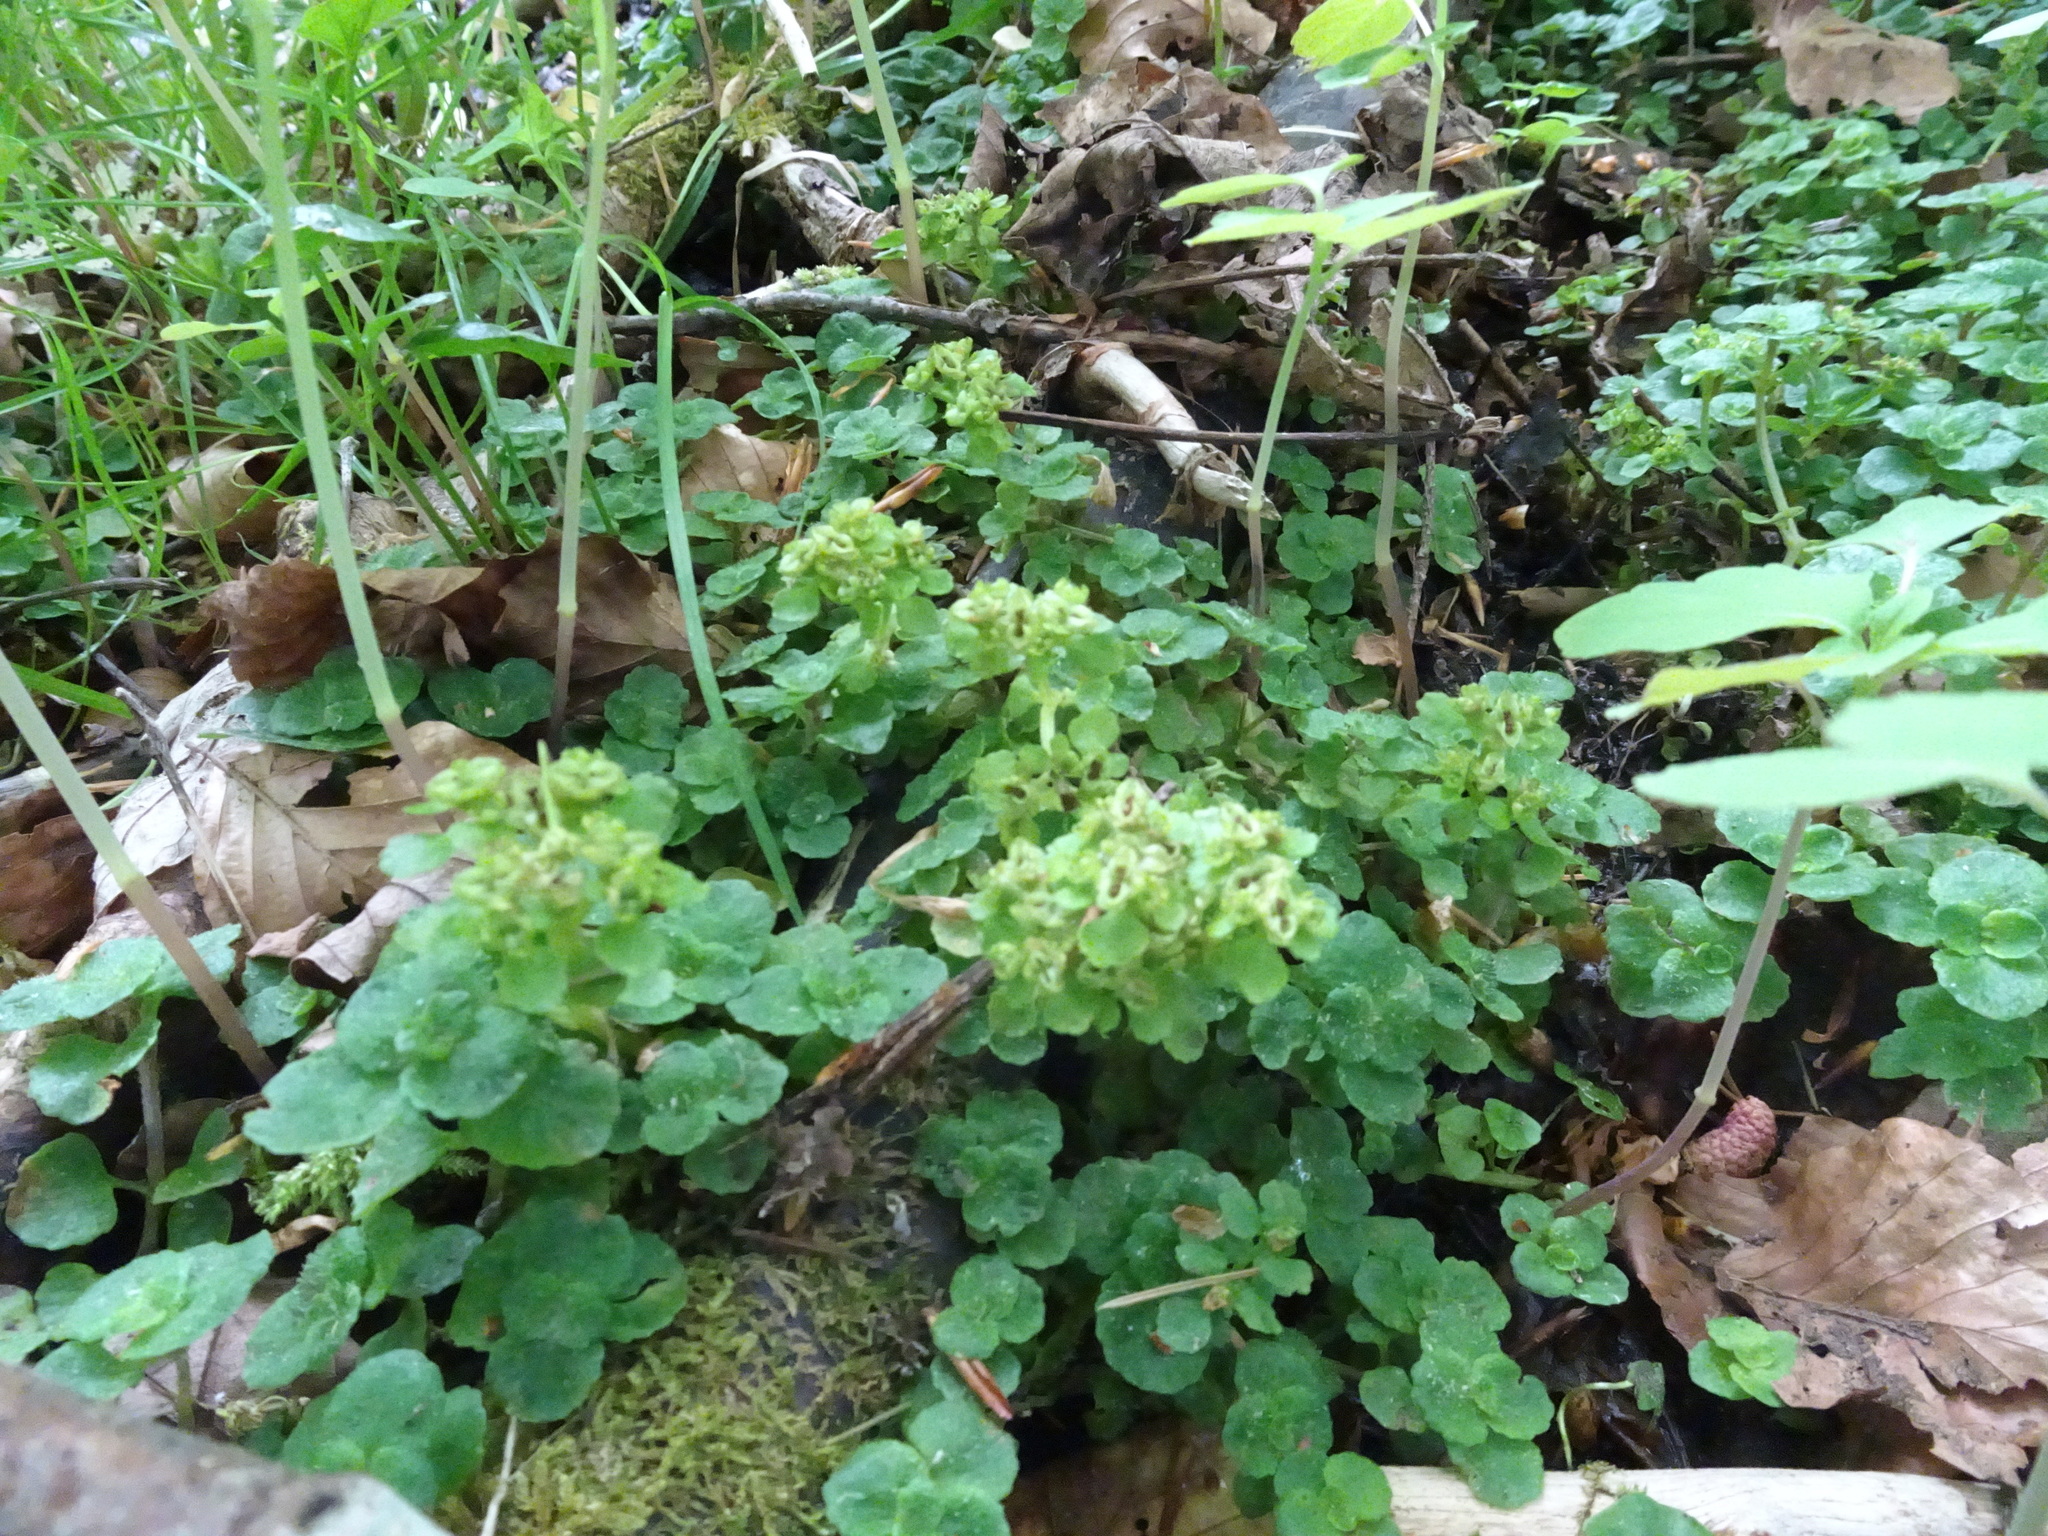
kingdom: Plantae
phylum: Tracheophyta
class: Magnoliopsida
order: Saxifragales
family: Saxifragaceae
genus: Chrysosplenium
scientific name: Chrysosplenium oppositifolium
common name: Opposite-leaved golden-saxifrage
